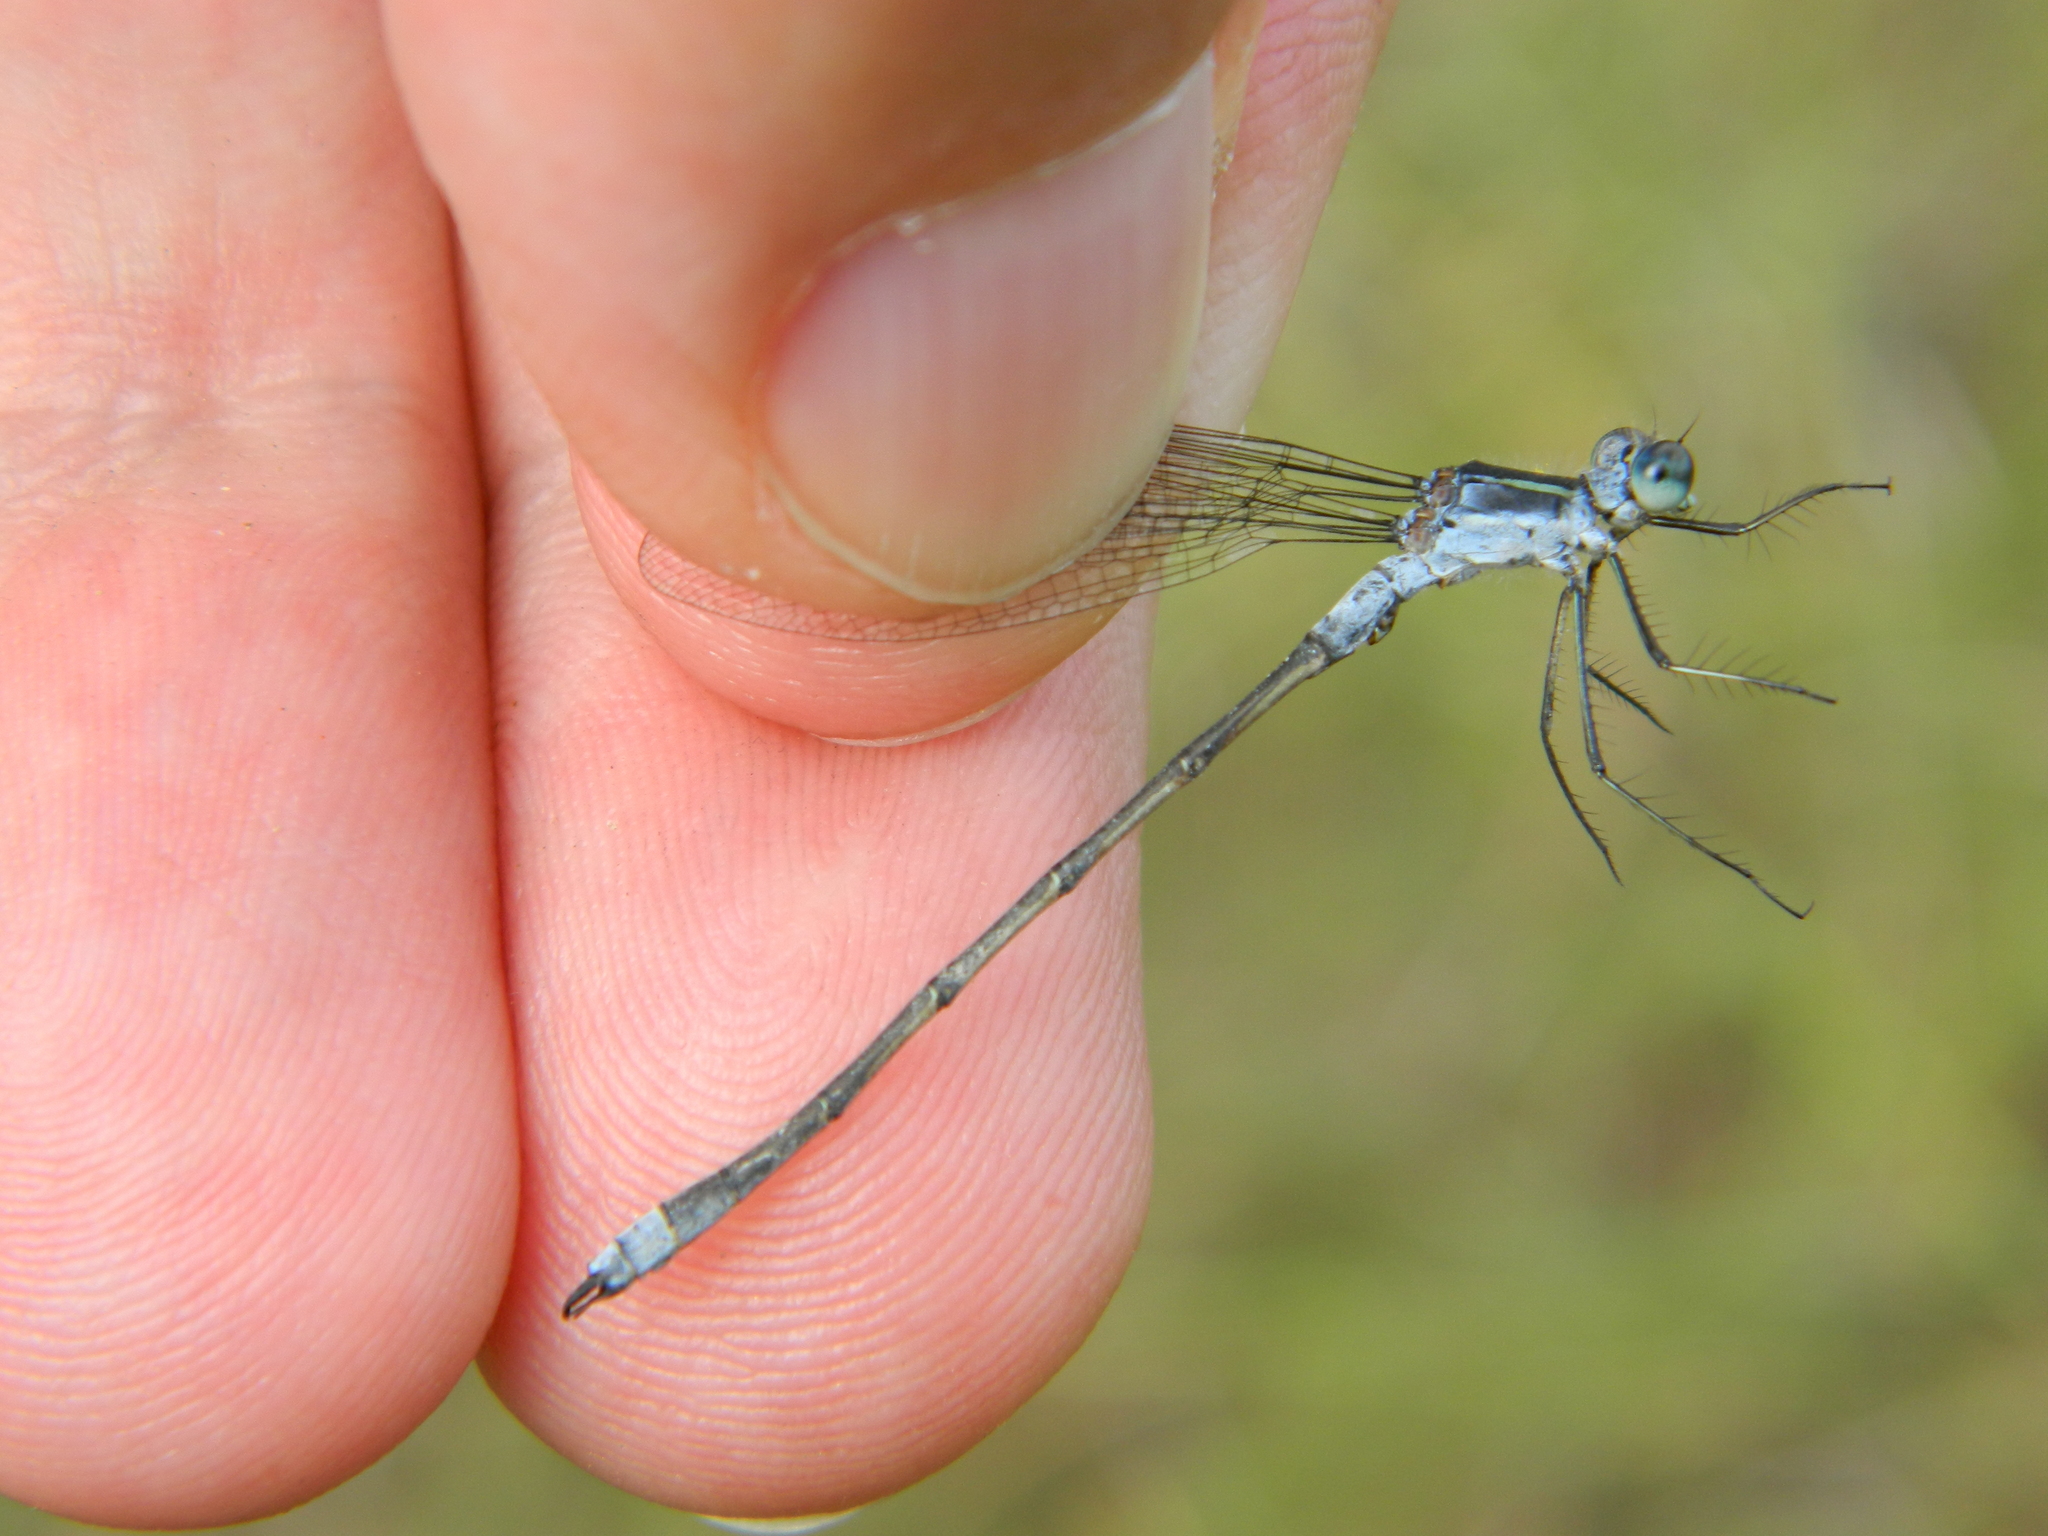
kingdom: Animalia
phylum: Arthropoda
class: Insecta
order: Odonata
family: Lestidae
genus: Lestes
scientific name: Lestes disjunctus
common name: Northern spreadwing
